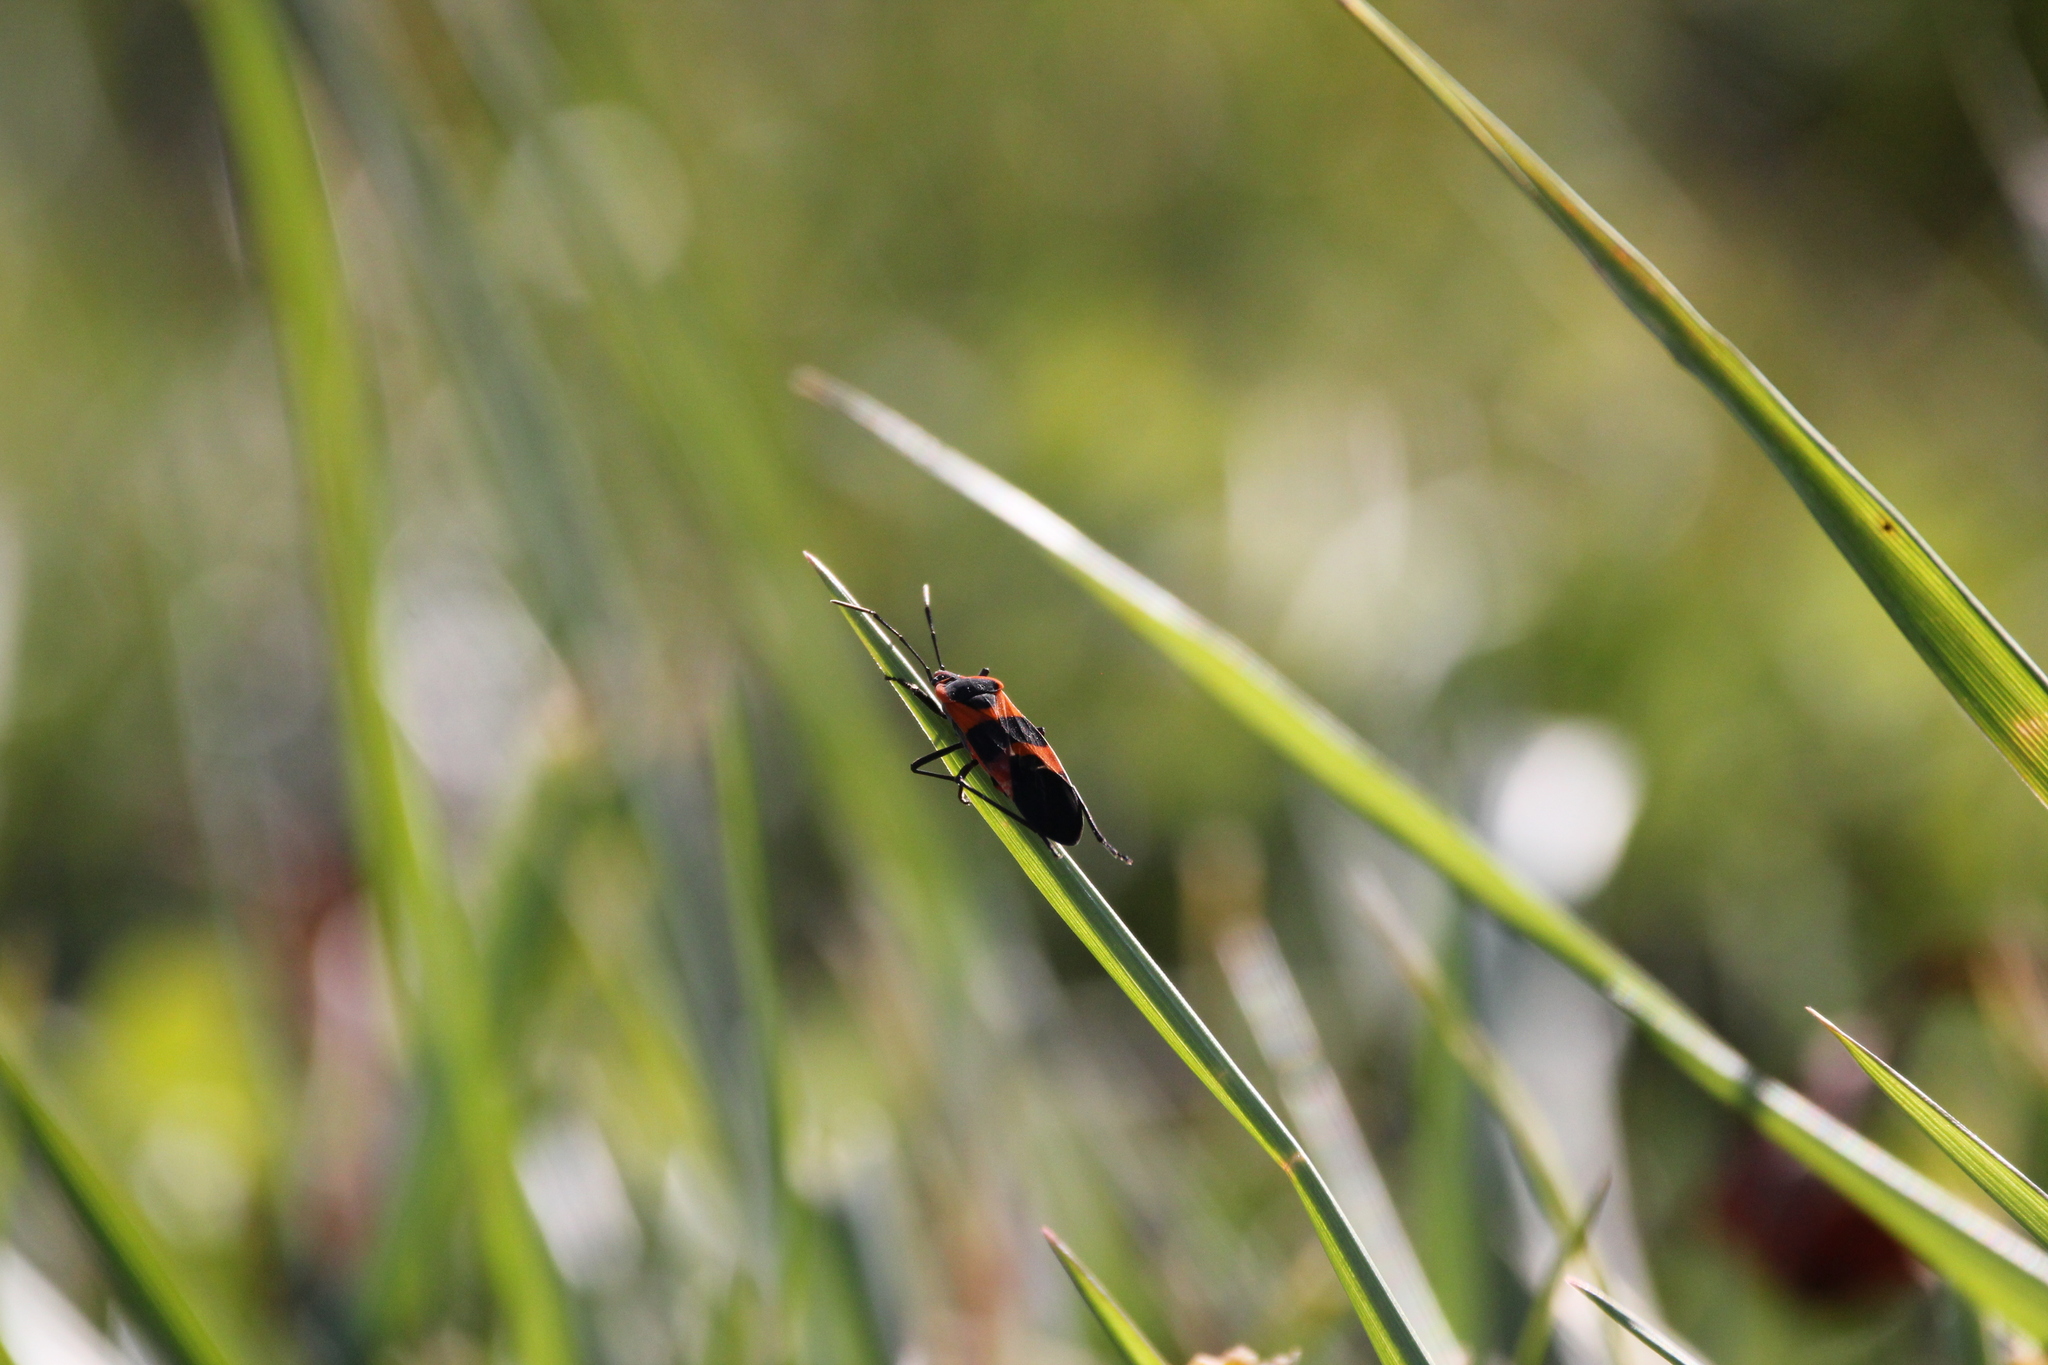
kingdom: Animalia
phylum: Arthropoda
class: Insecta
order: Hemiptera
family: Lygaeidae
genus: Oncopeltus
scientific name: Oncopeltus fasciatus
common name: Large milkweed bug
